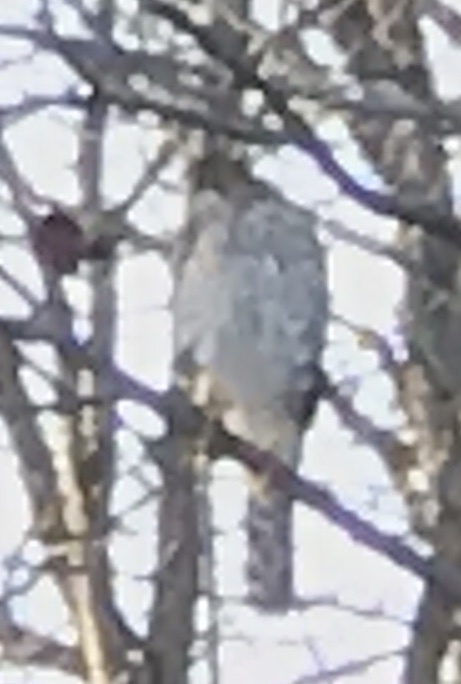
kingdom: Animalia
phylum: Chordata
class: Aves
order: Accipitriformes
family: Accipitridae
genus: Accipiter
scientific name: Accipiter cooperii
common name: Cooper's hawk
